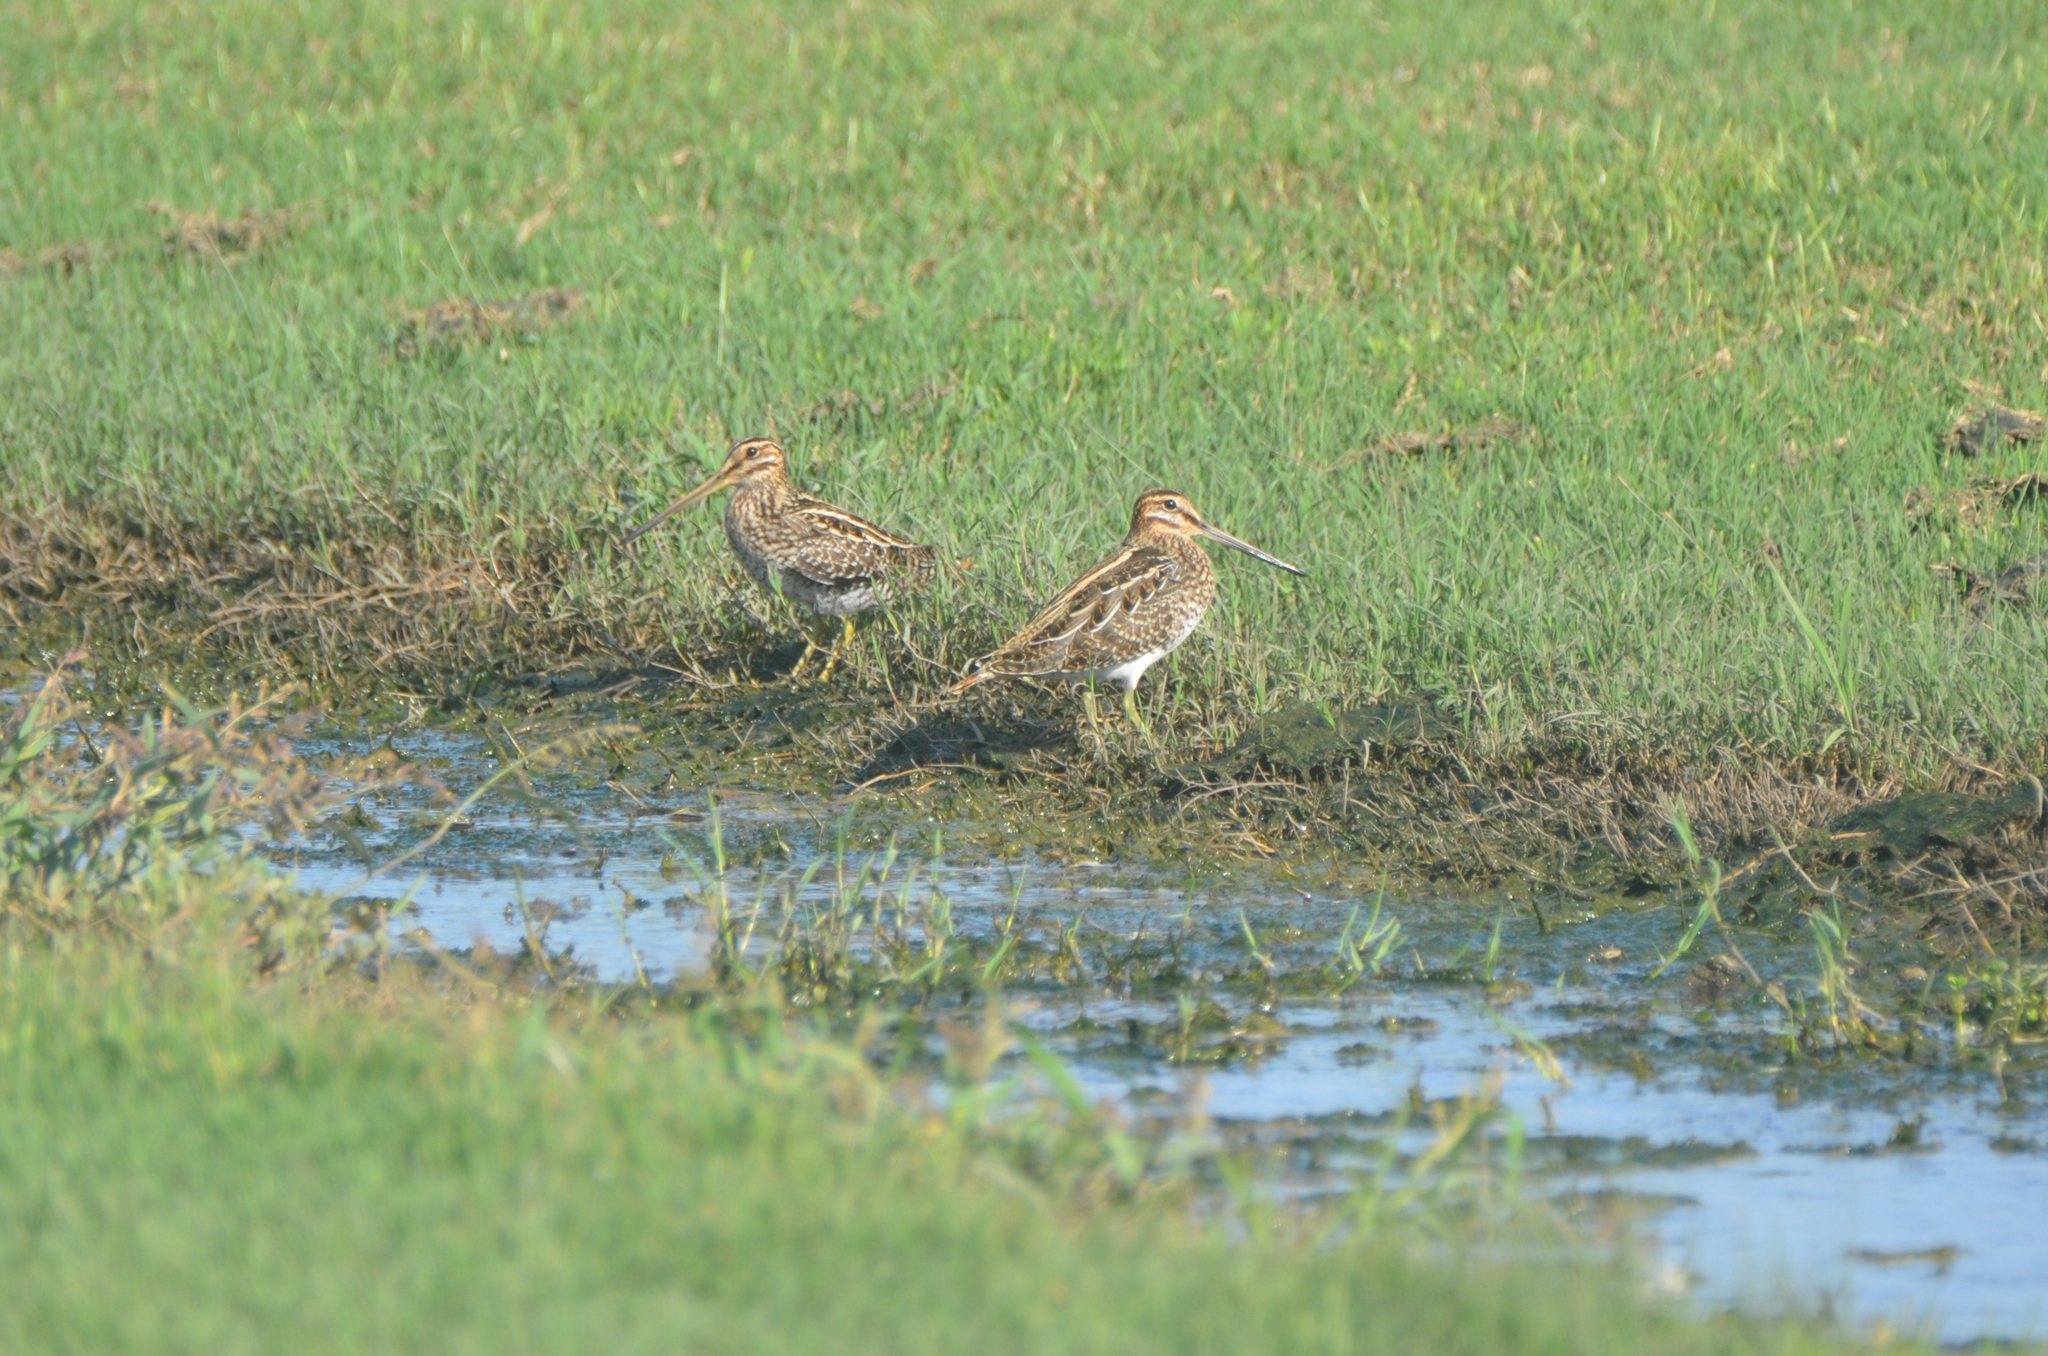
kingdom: Animalia
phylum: Chordata
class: Aves
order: Charadriiformes
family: Scolopacidae
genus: Gallinago
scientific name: Gallinago delicata
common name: Wilson's snipe
